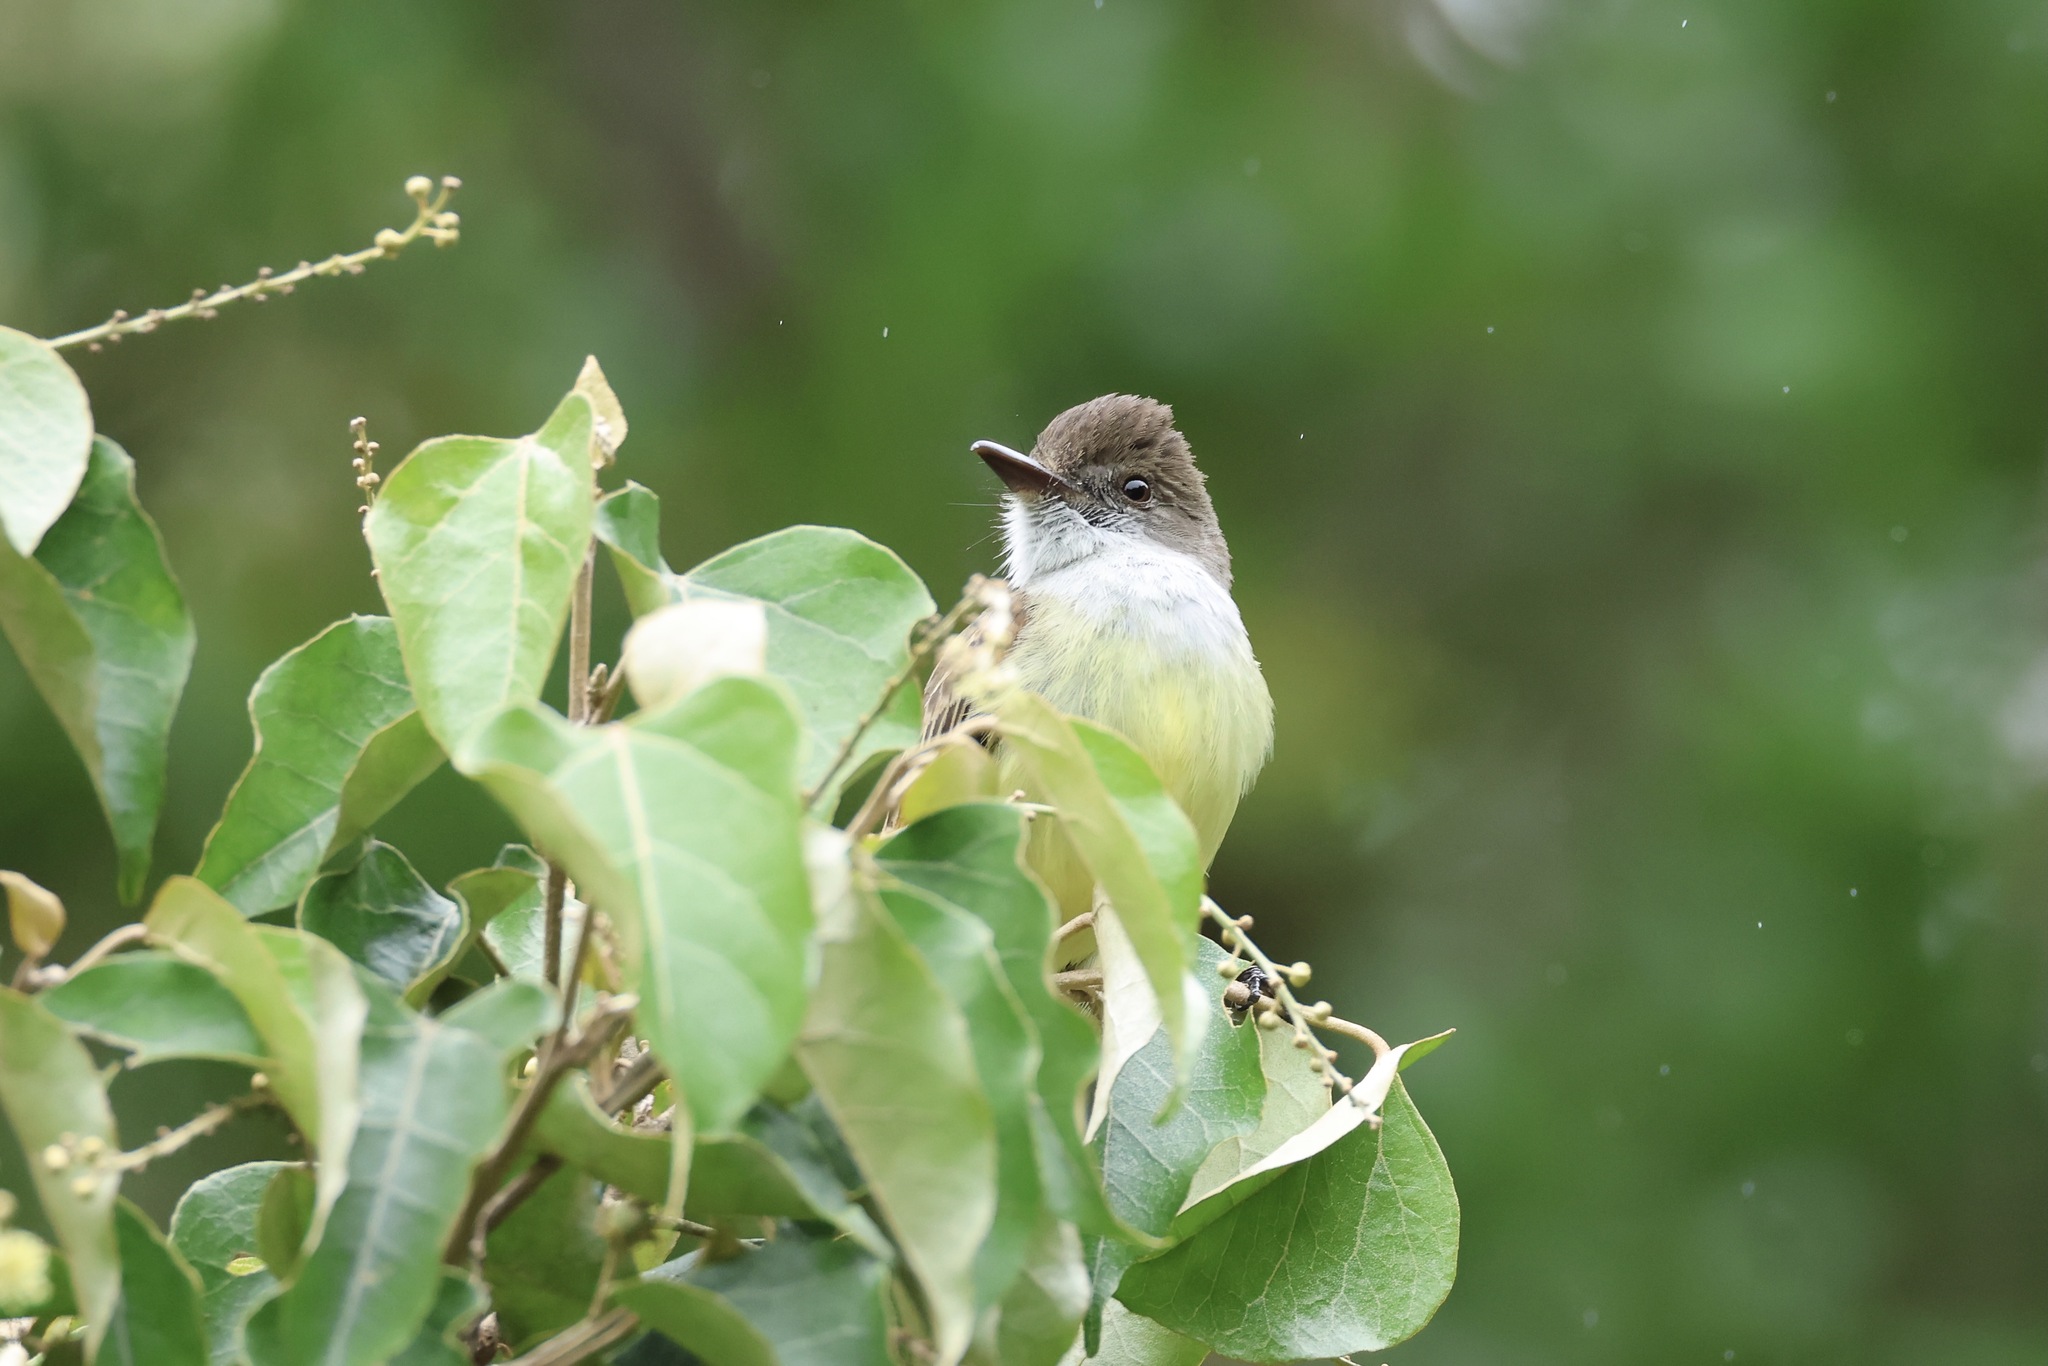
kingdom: Animalia
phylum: Chordata
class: Aves
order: Passeriformes
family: Tyrannidae
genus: Myiarchus
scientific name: Myiarchus tuberculifer
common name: Dusky-capped flycatcher
